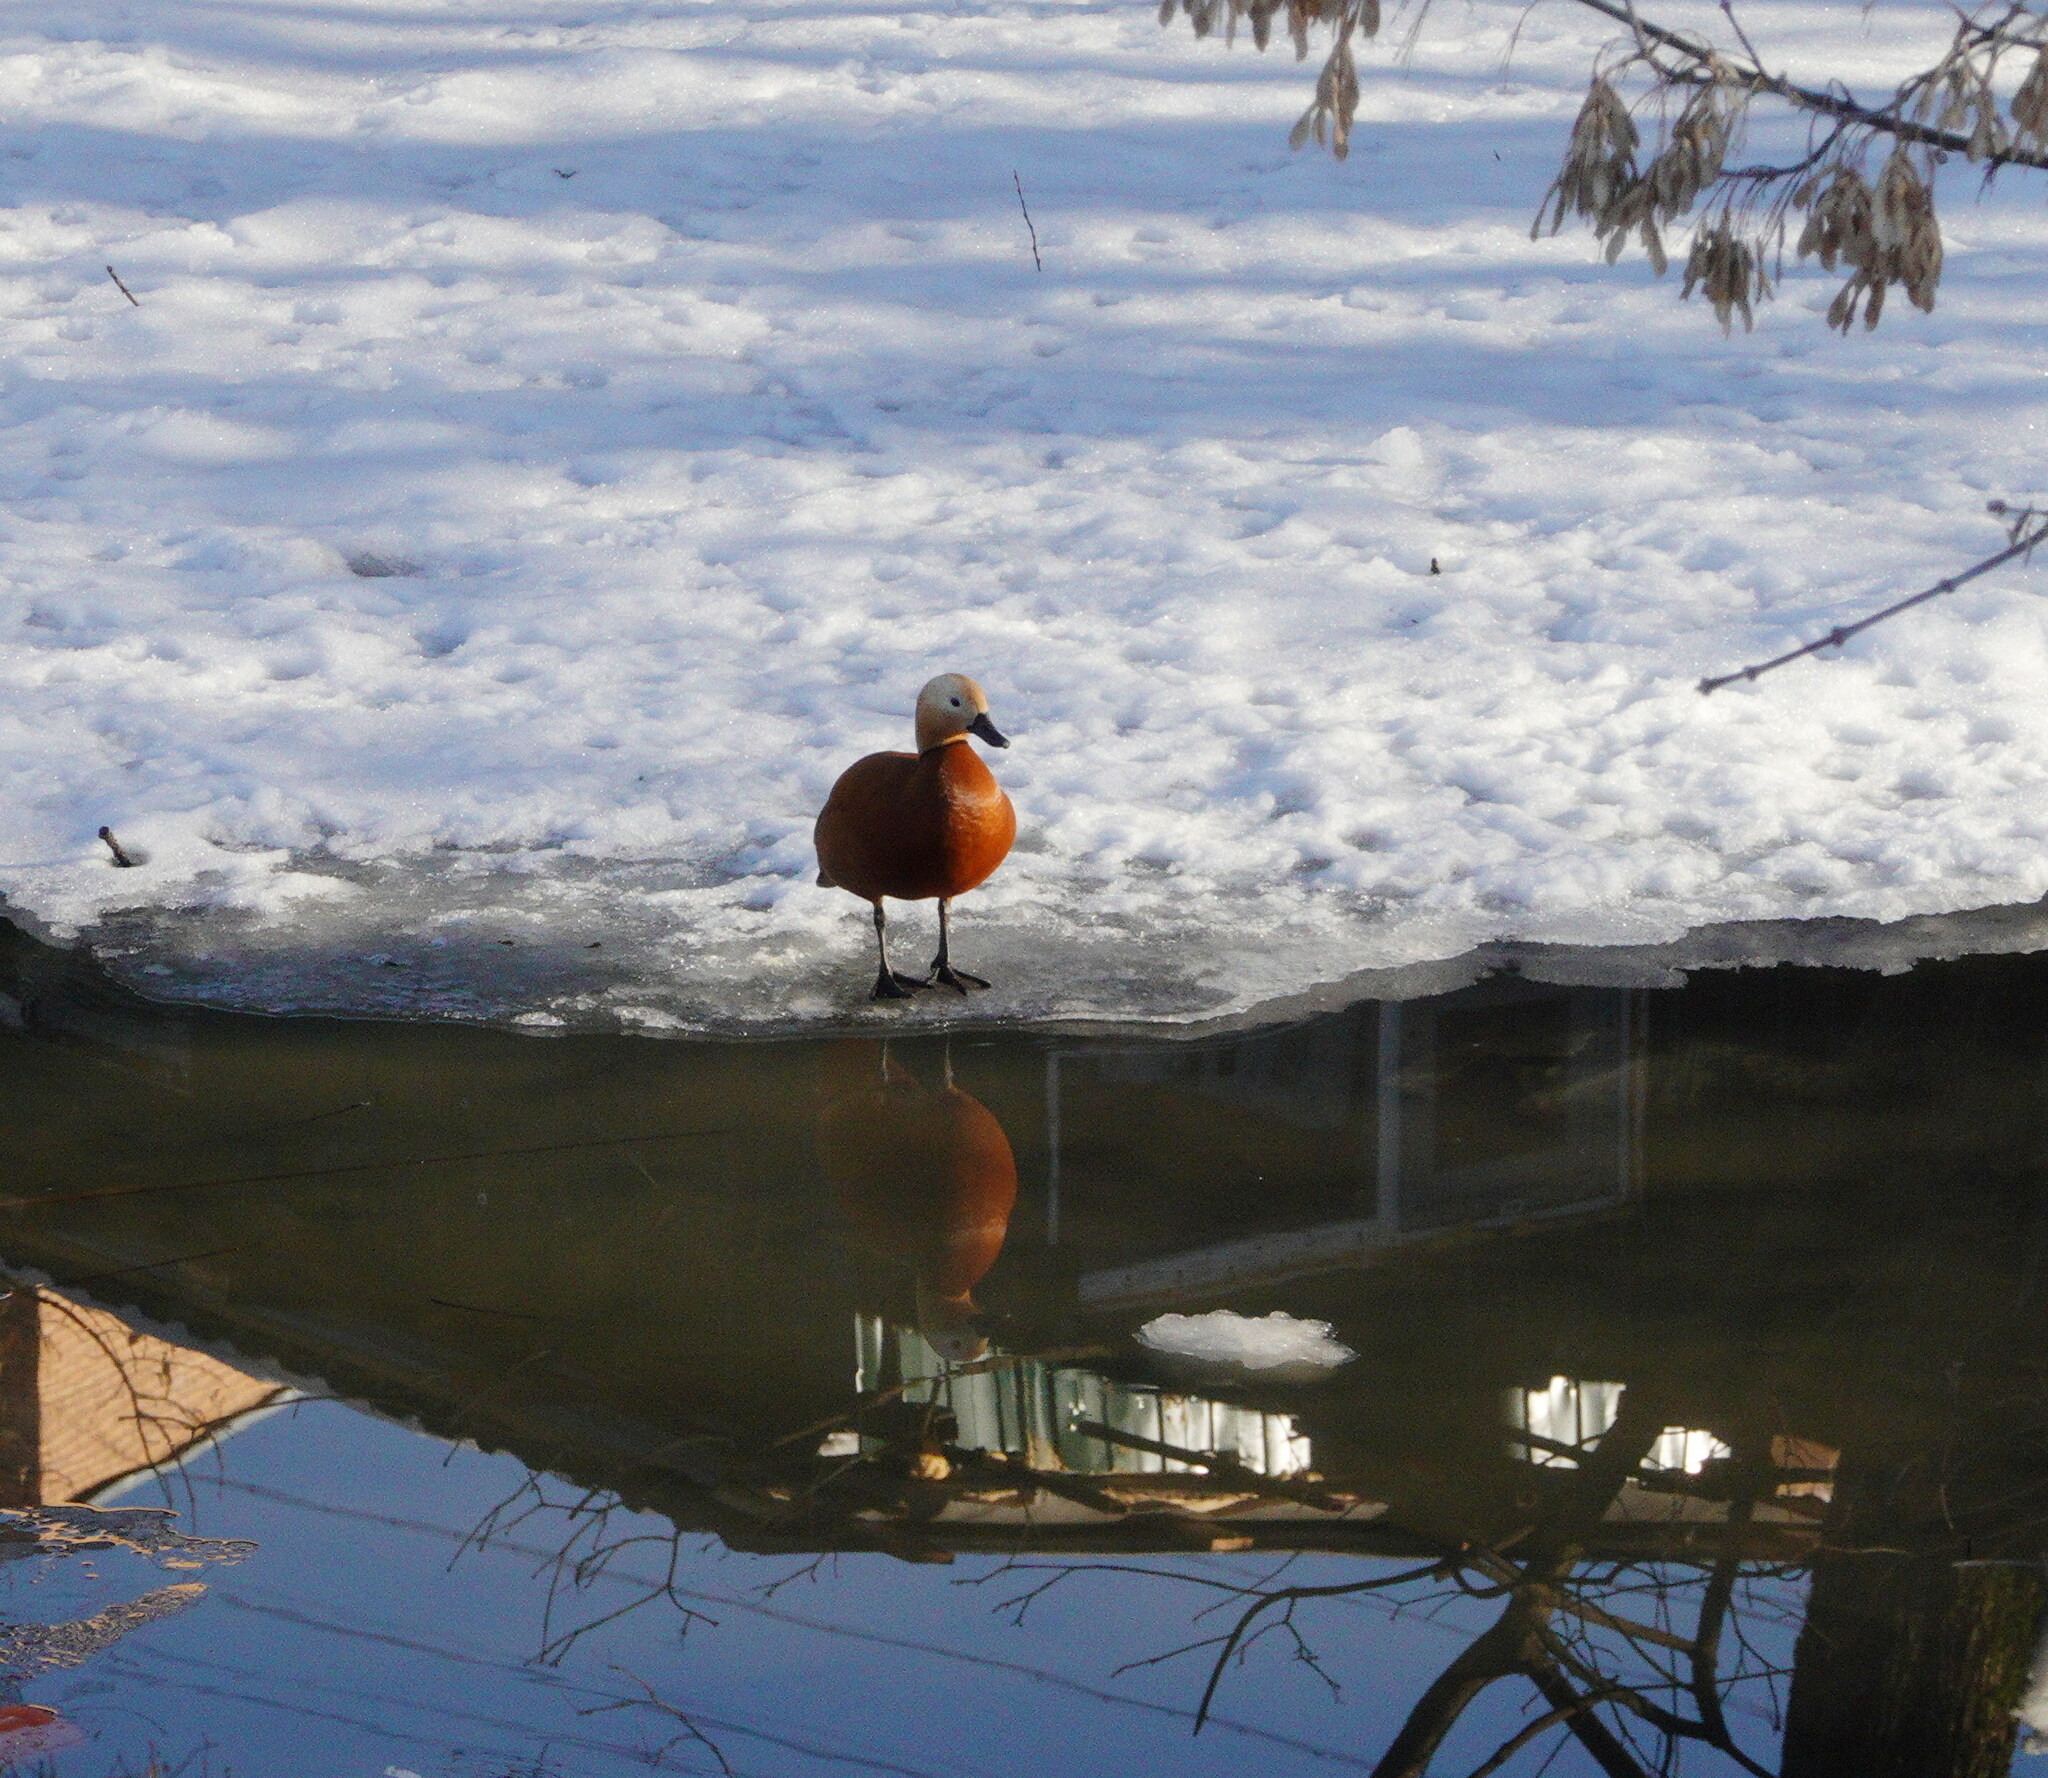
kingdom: Animalia
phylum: Chordata
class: Aves
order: Anseriformes
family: Anatidae
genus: Tadorna
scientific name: Tadorna ferruginea
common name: Ruddy shelduck
